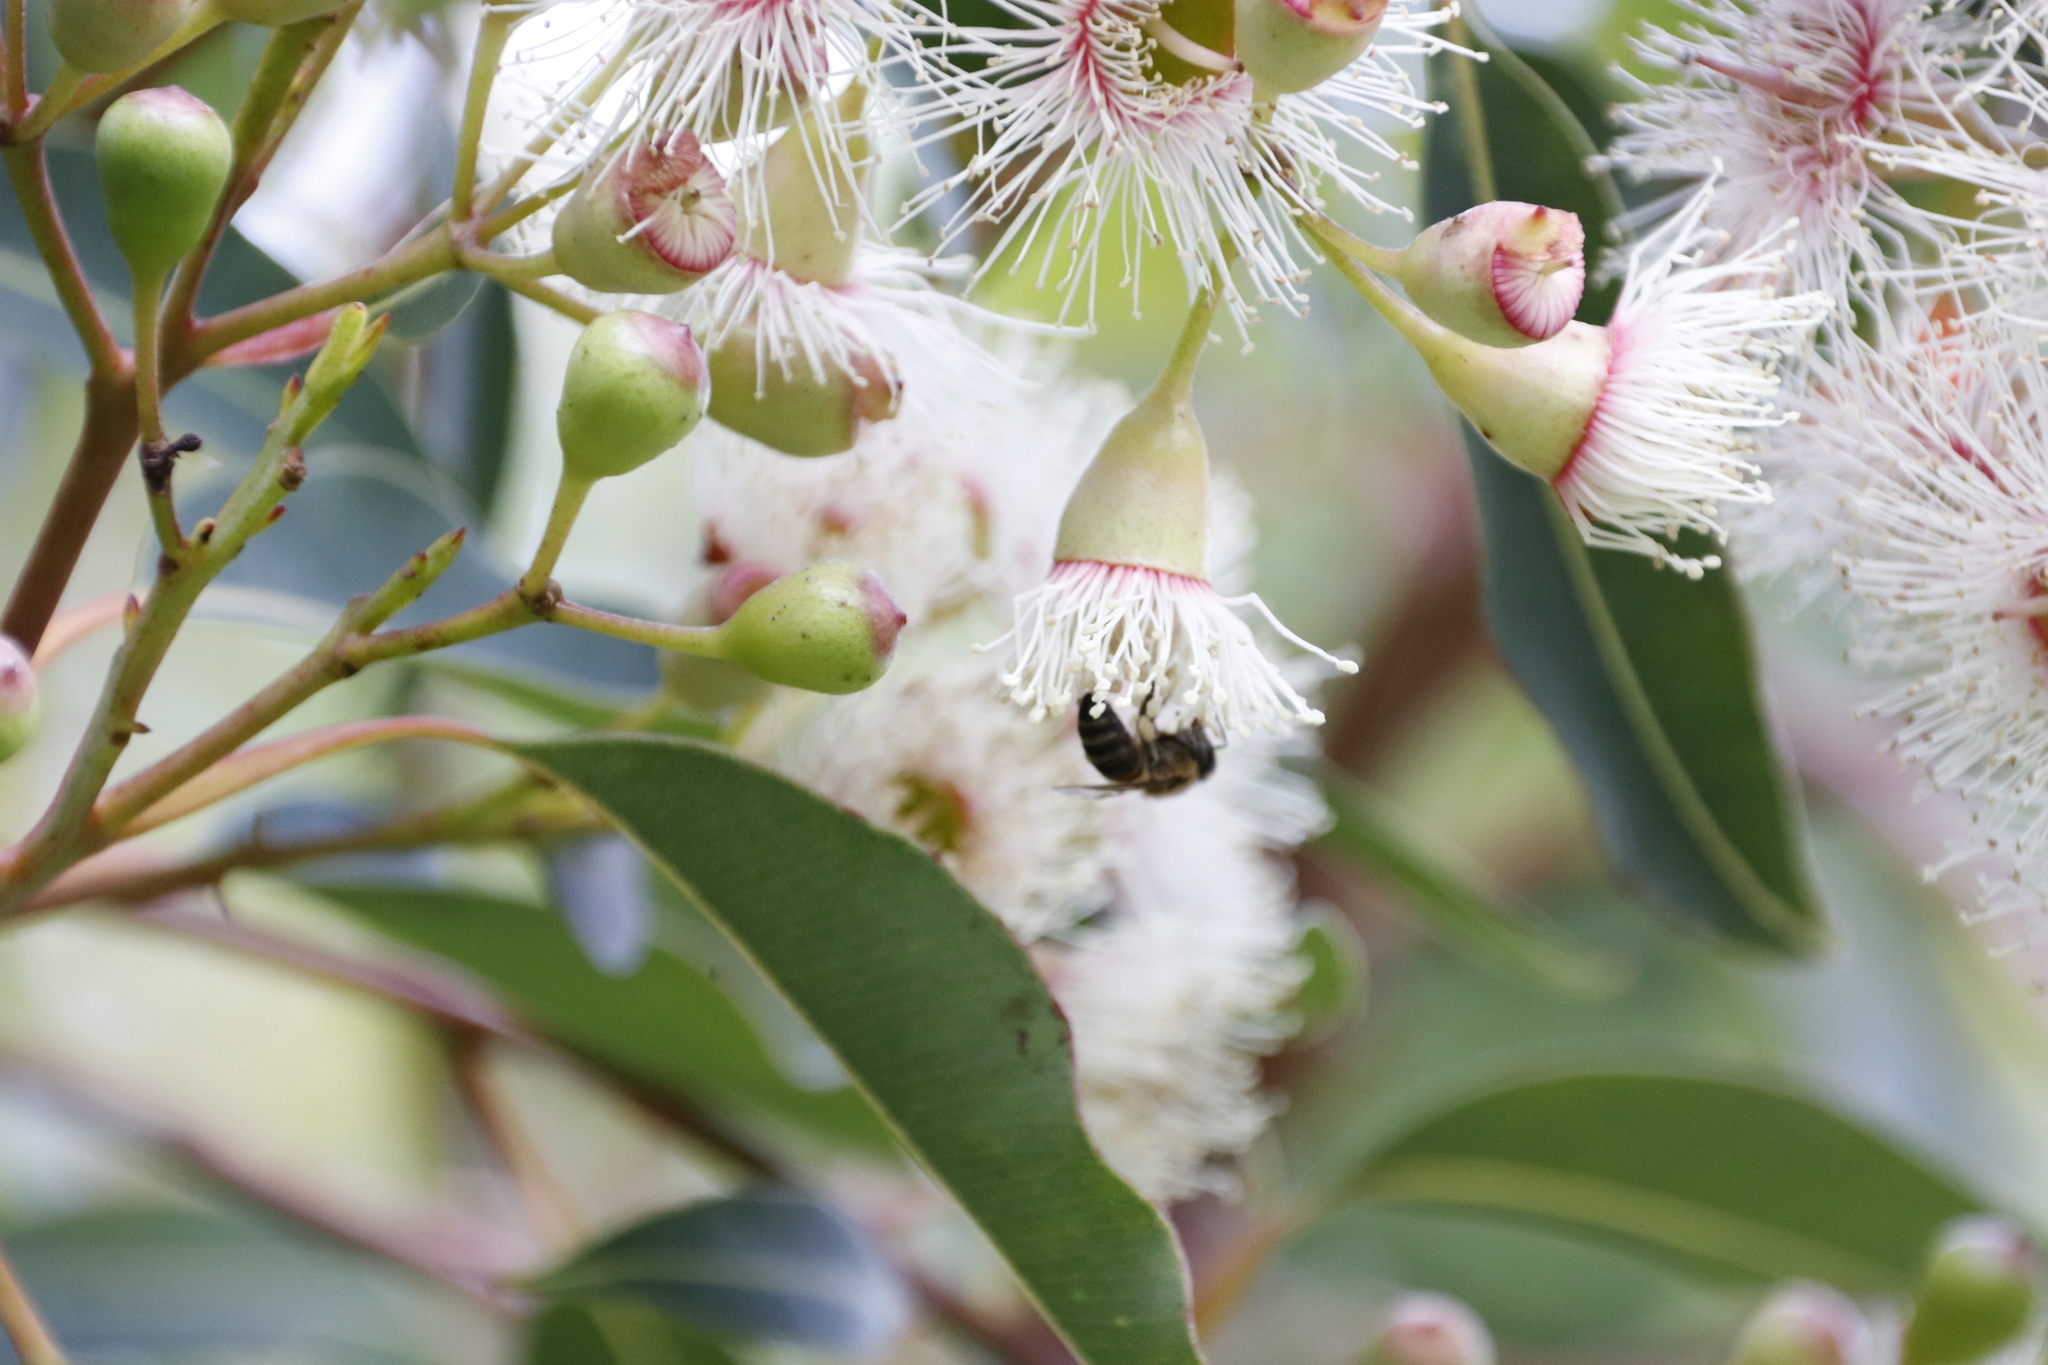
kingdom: Animalia
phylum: Arthropoda
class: Insecta
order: Hymenoptera
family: Apidae
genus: Apis
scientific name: Apis mellifera
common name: Honey bee
